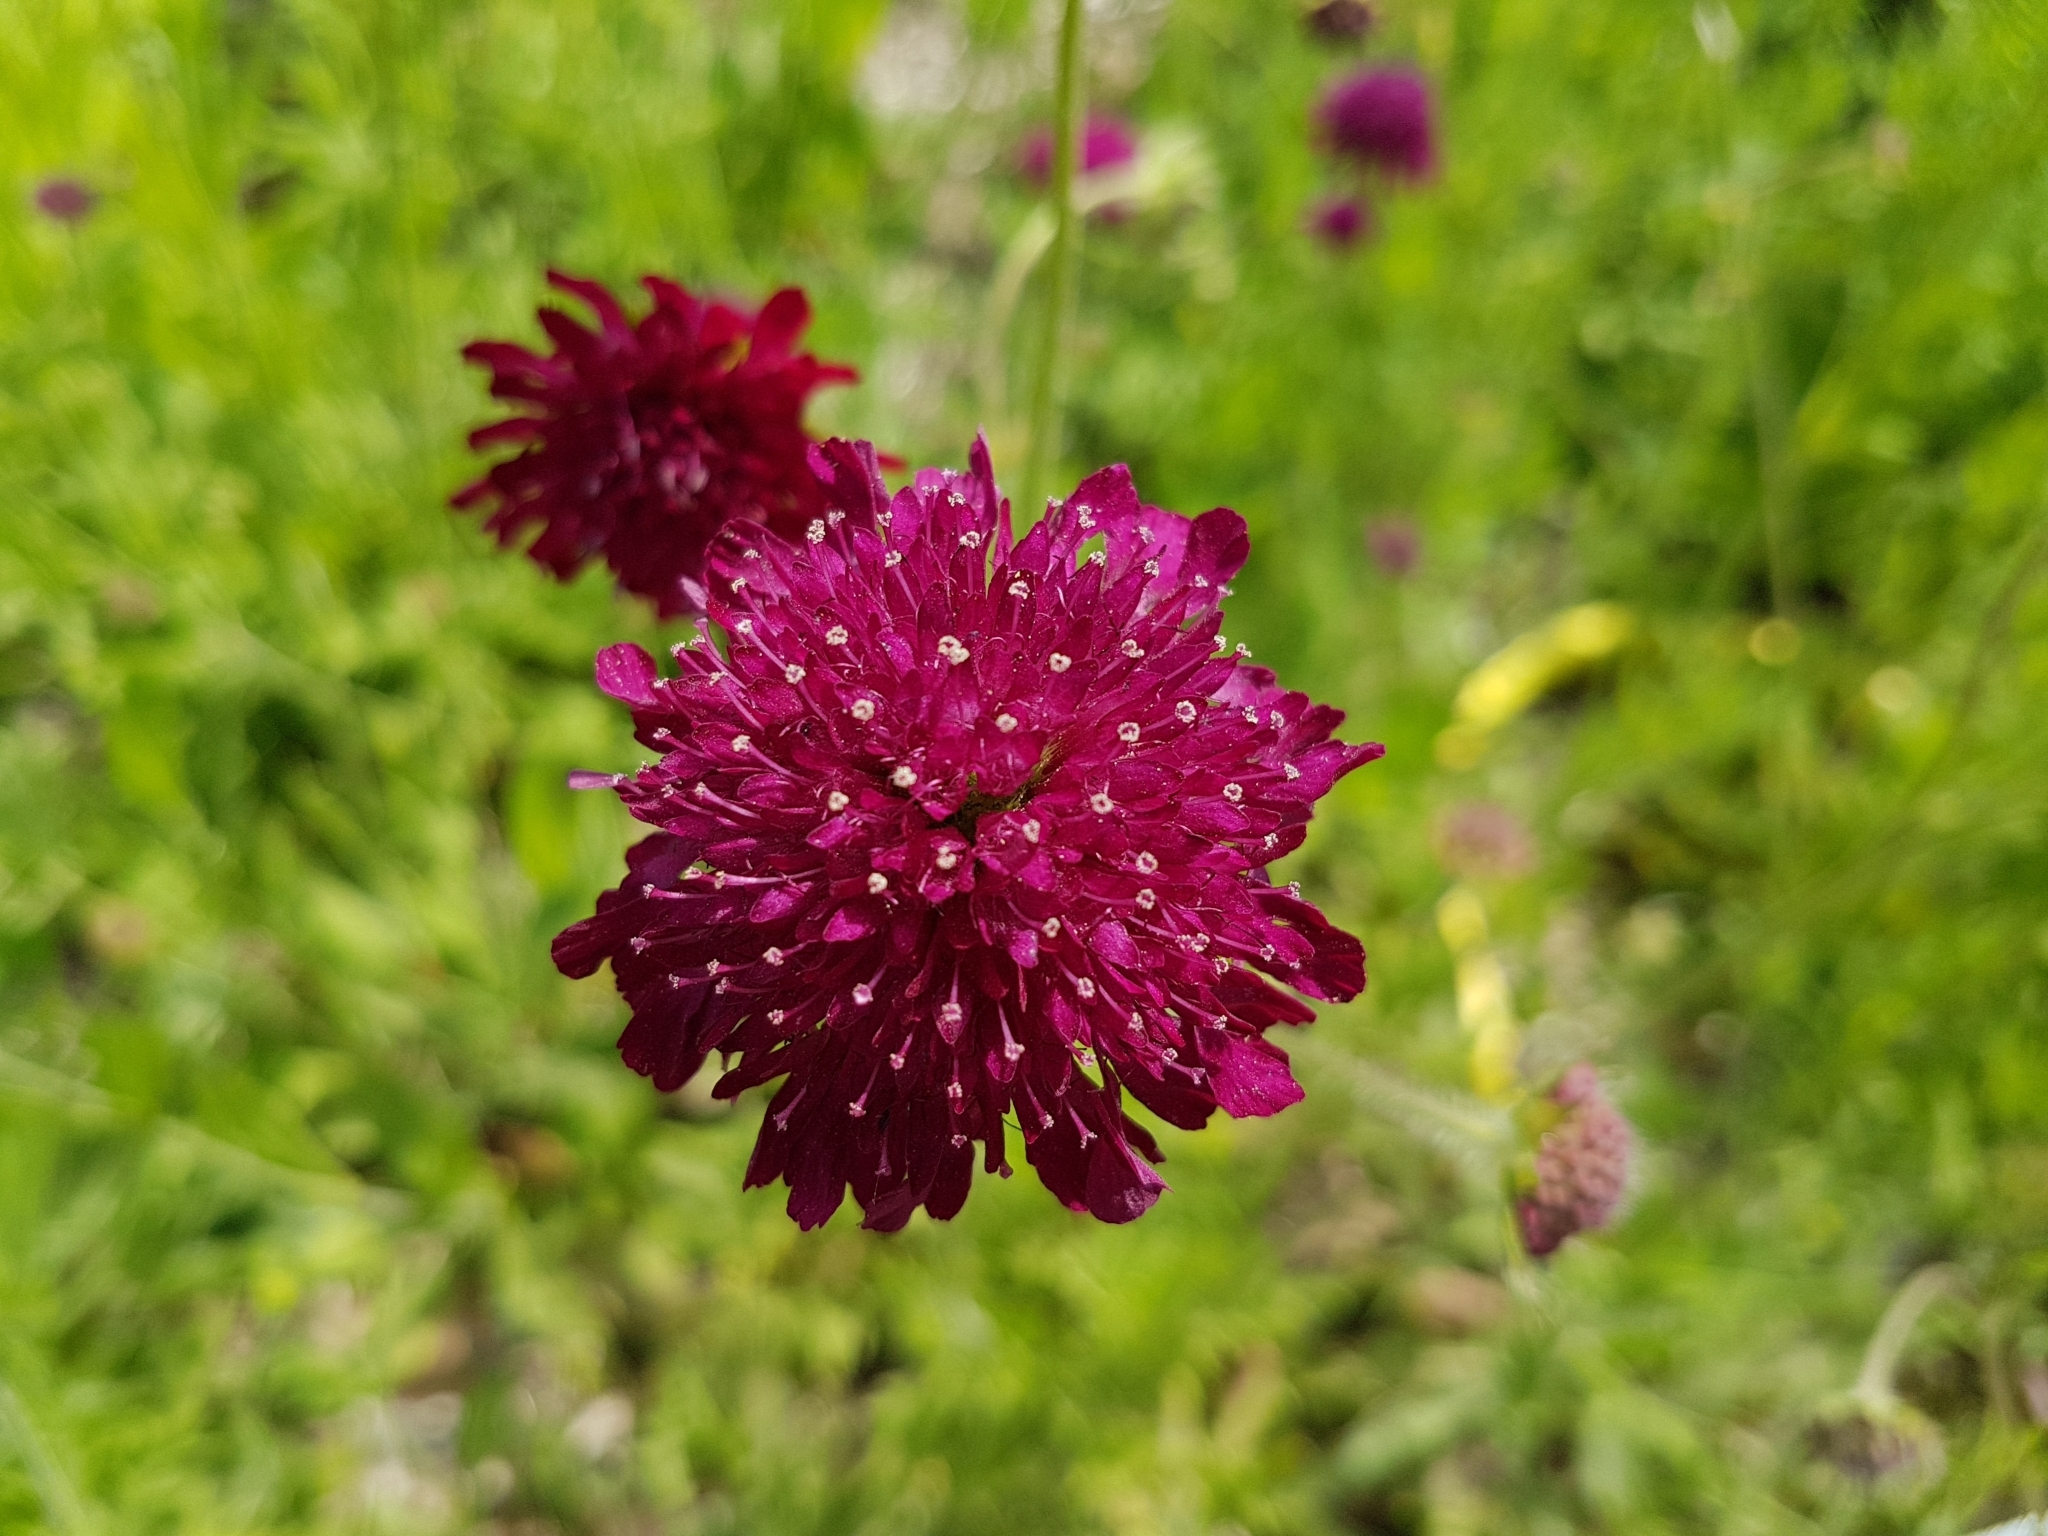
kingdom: Plantae
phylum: Tracheophyta
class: Magnoliopsida
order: Dipsacales
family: Caprifoliaceae
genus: Sixalix
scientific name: Sixalix atropurpurea
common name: Sweet scabious
